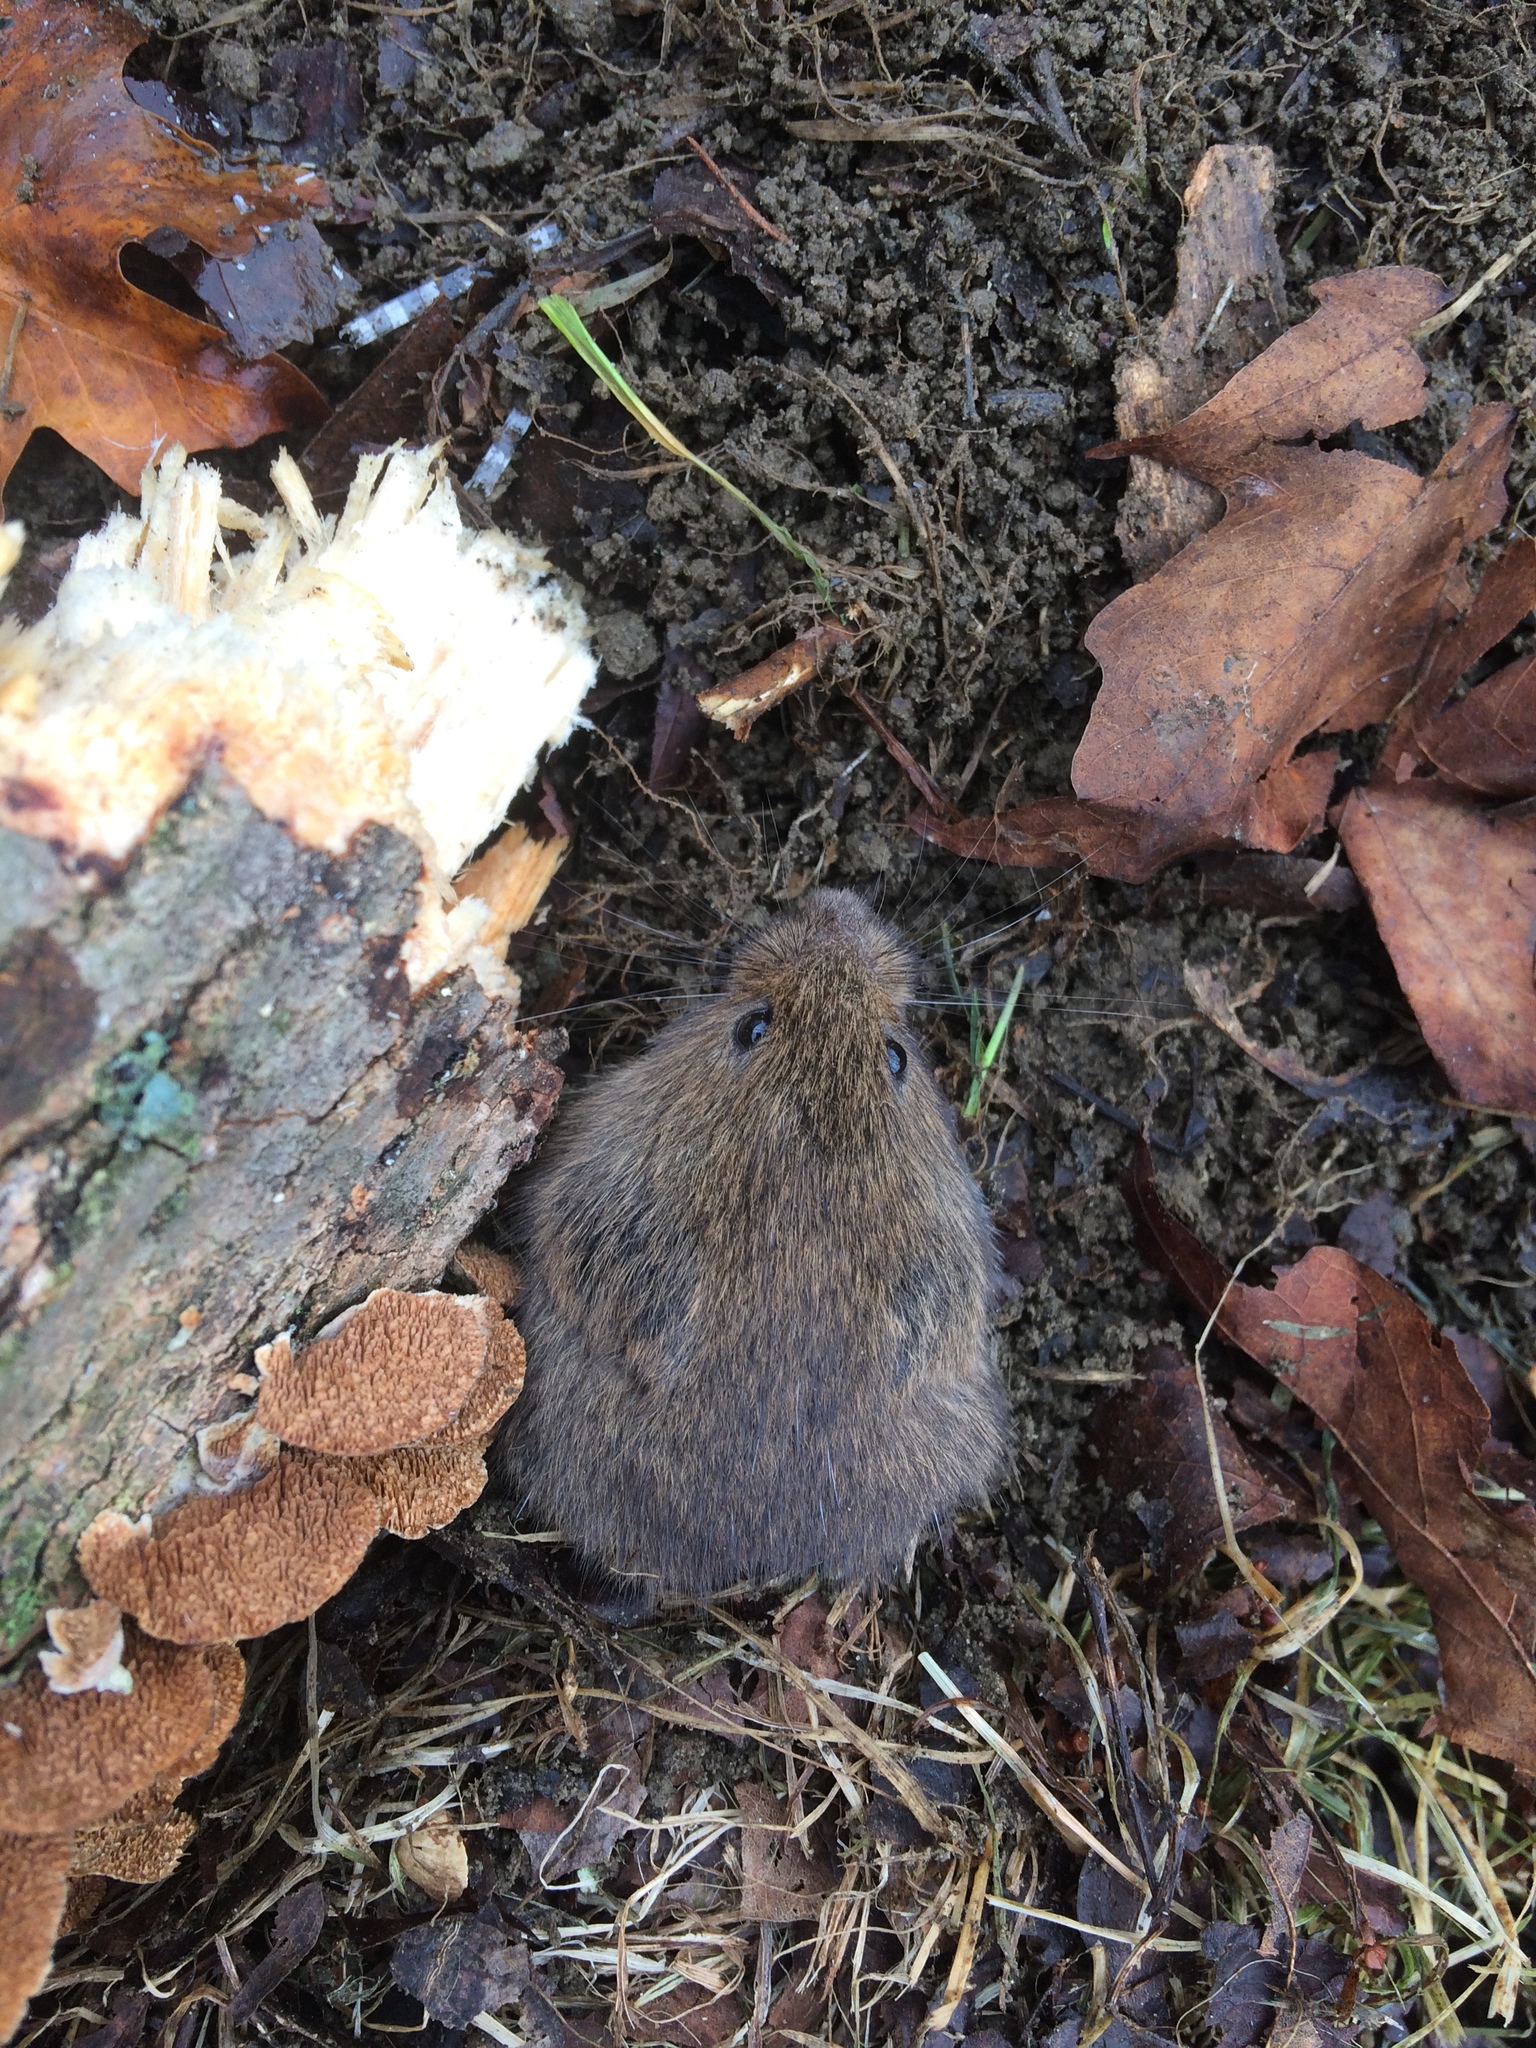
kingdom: Animalia
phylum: Chordata
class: Mammalia
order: Rodentia
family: Cricetidae
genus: Microtus
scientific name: Microtus pennsylvanicus
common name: Meadow vole
